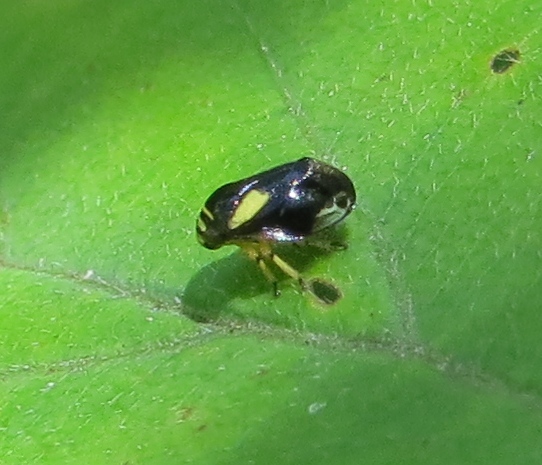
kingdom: Animalia
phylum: Arthropoda
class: Insecta
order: Hemiptera
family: Clastopteridae
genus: Clastoptera
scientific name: Clastoptera proteus
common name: Dogwood spittlebug
